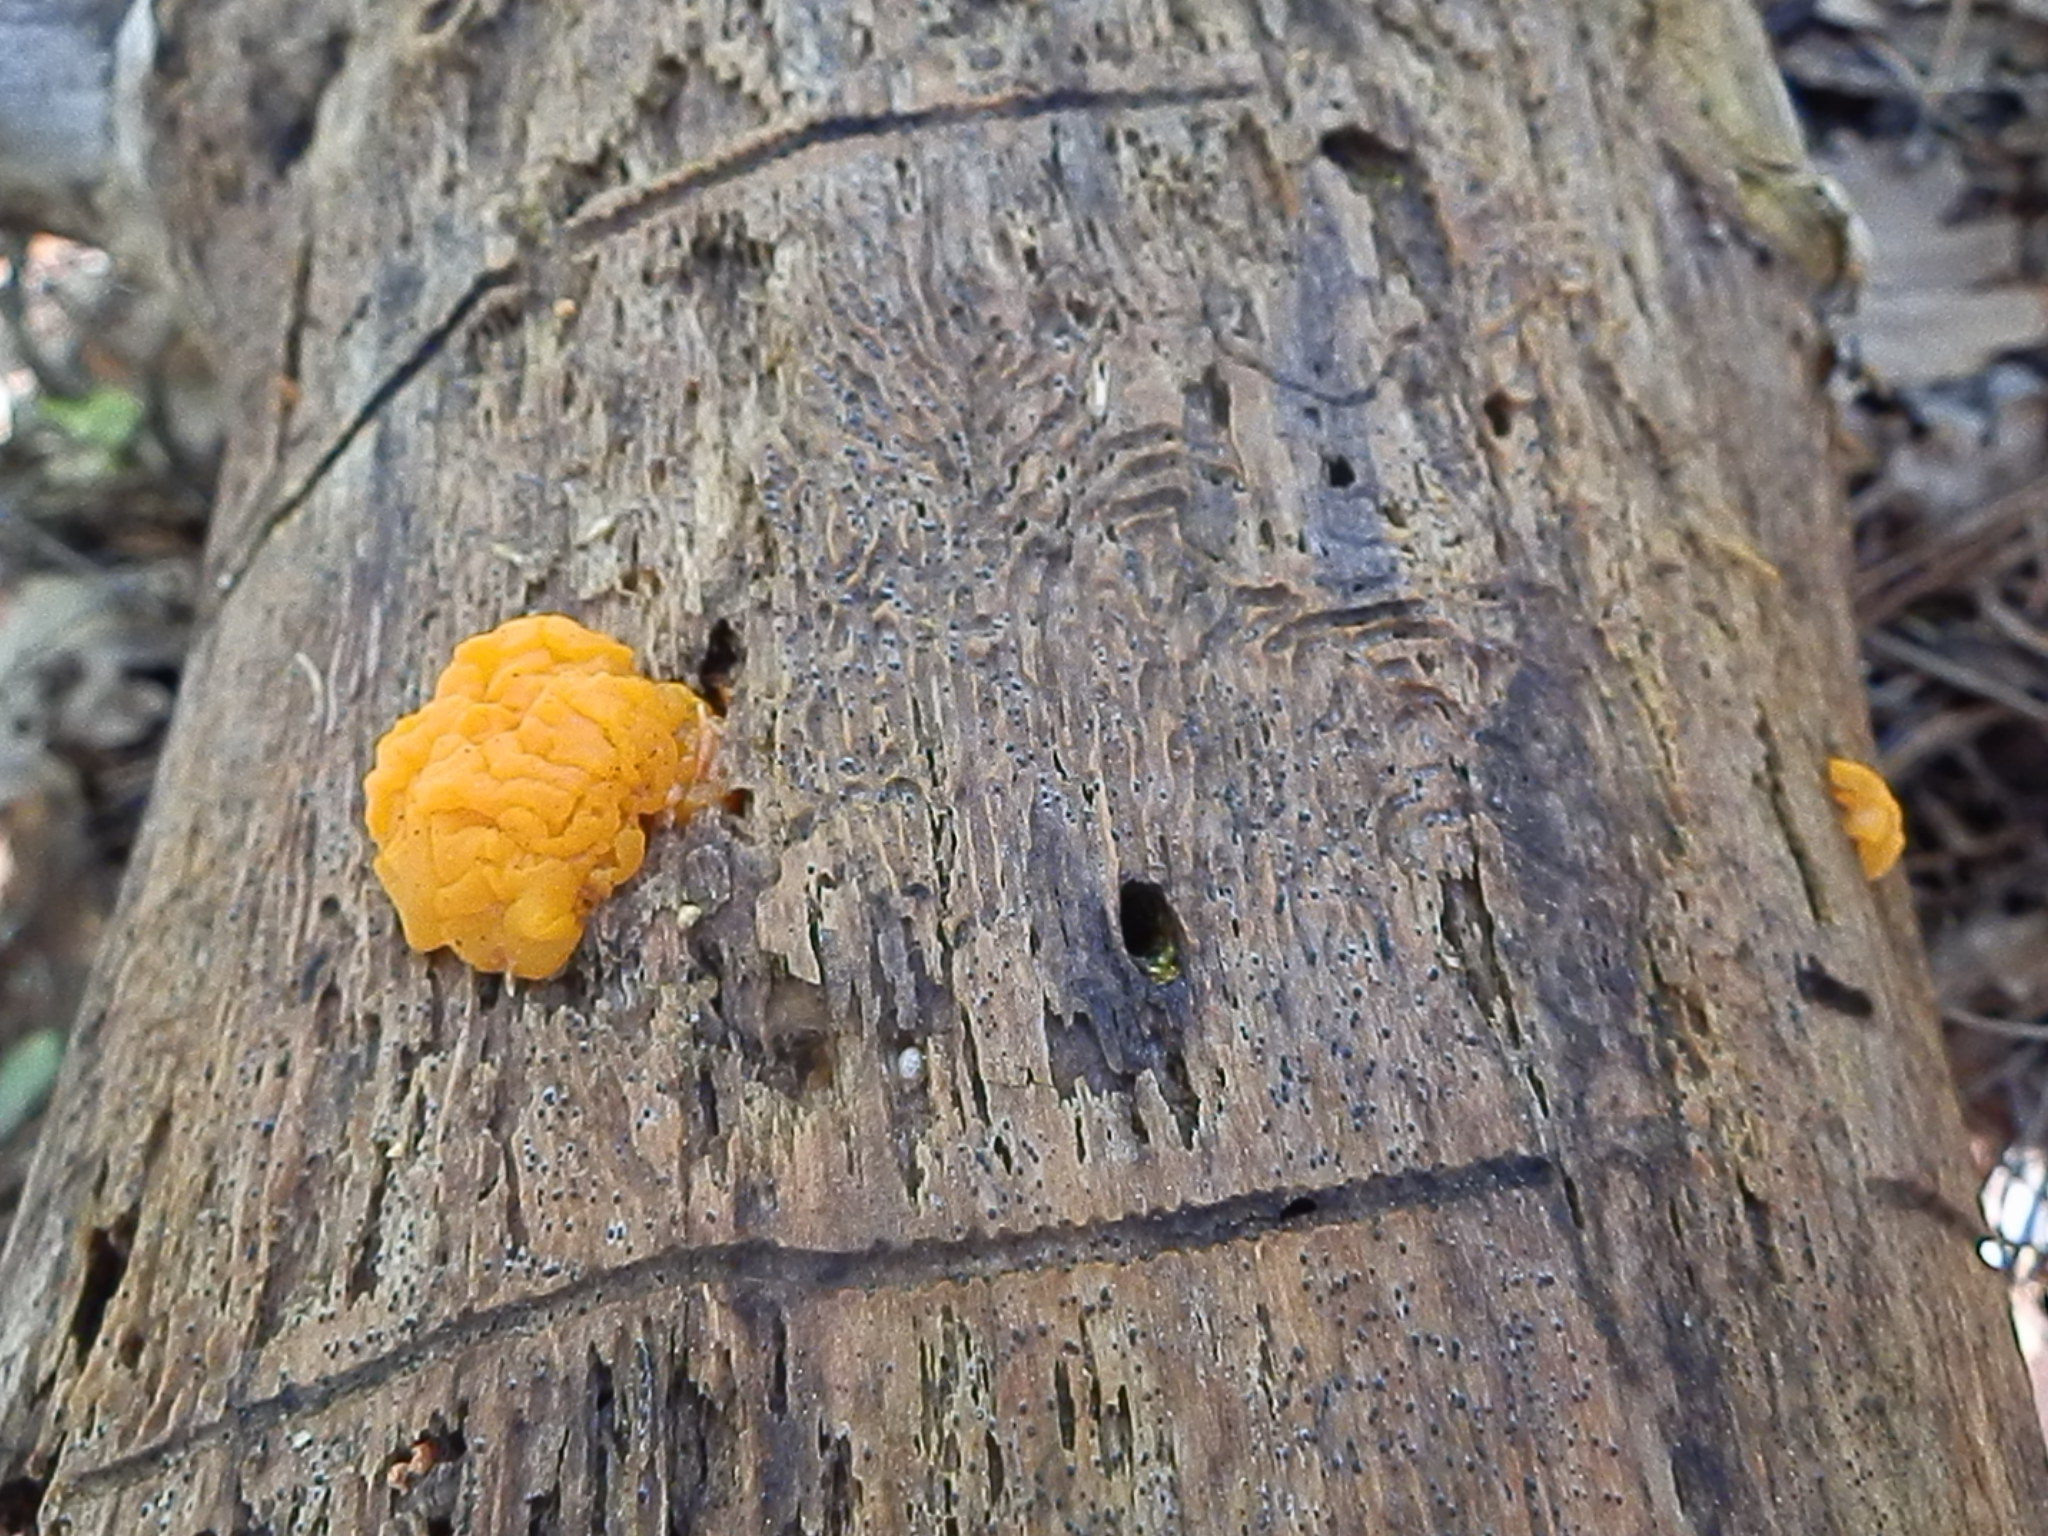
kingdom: Fungi
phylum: Basidiomycota
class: Dacrymycetes
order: Dacrymycetales
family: Dacrymycetaceae
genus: Dacrymyces
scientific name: Dacrymyces dictyosporus
